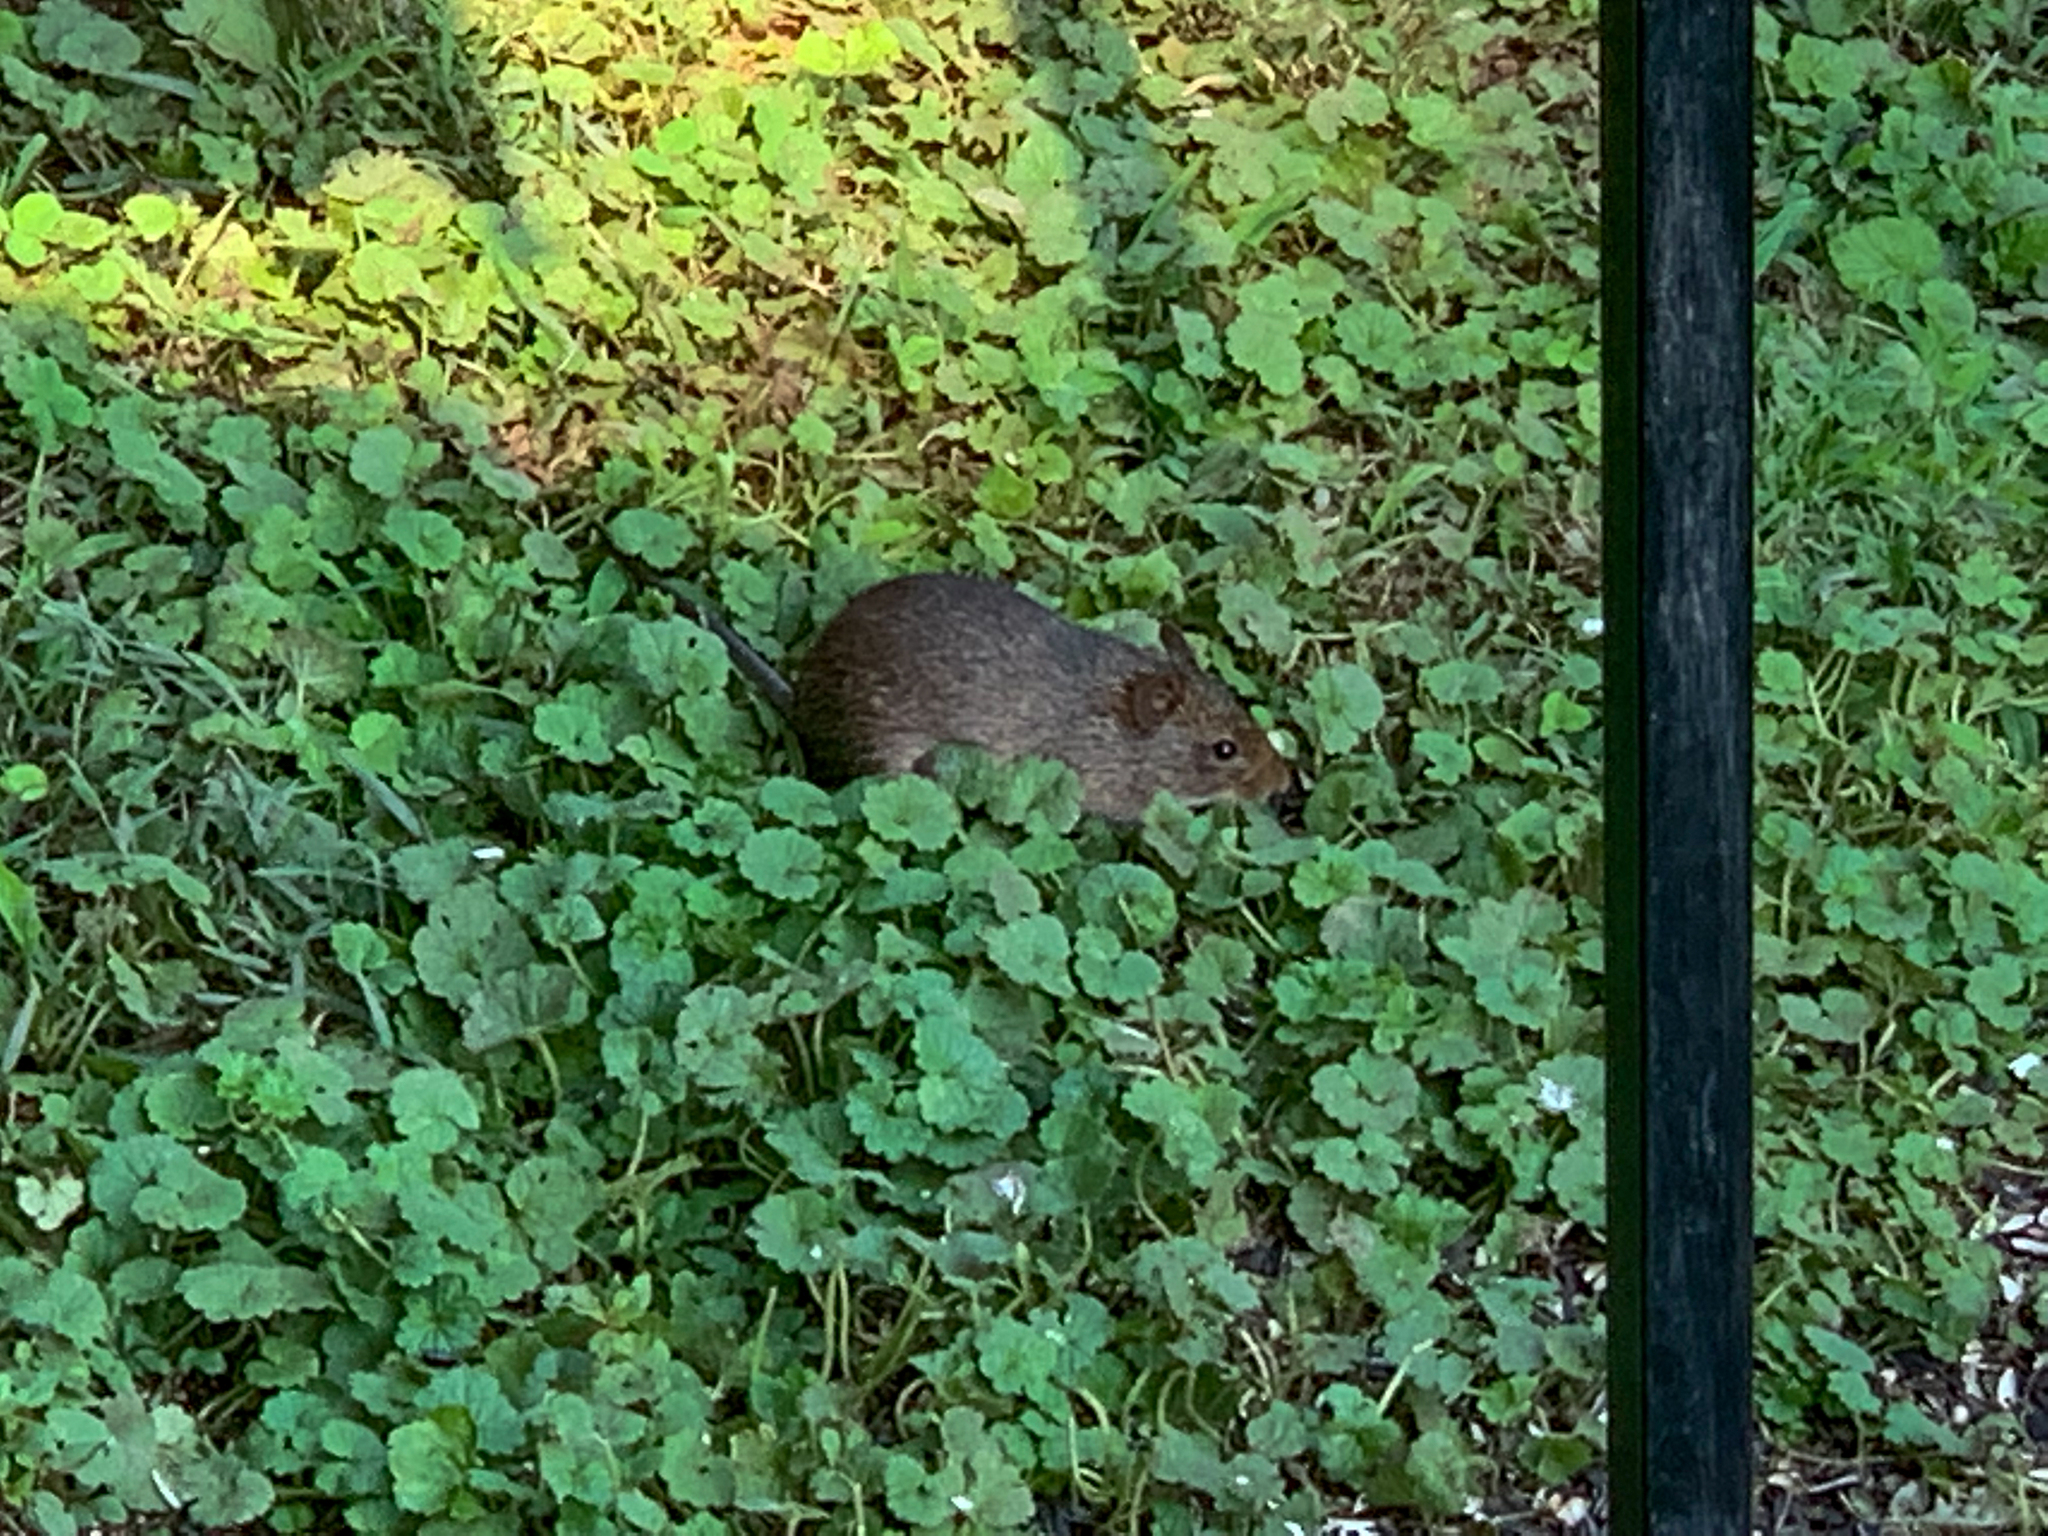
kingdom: Animalia
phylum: Chordata
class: Mammalia
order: Rodentia
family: Cricetidae
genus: Sigmodon
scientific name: Sigmodon hispidus
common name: Hispid cotton rat
